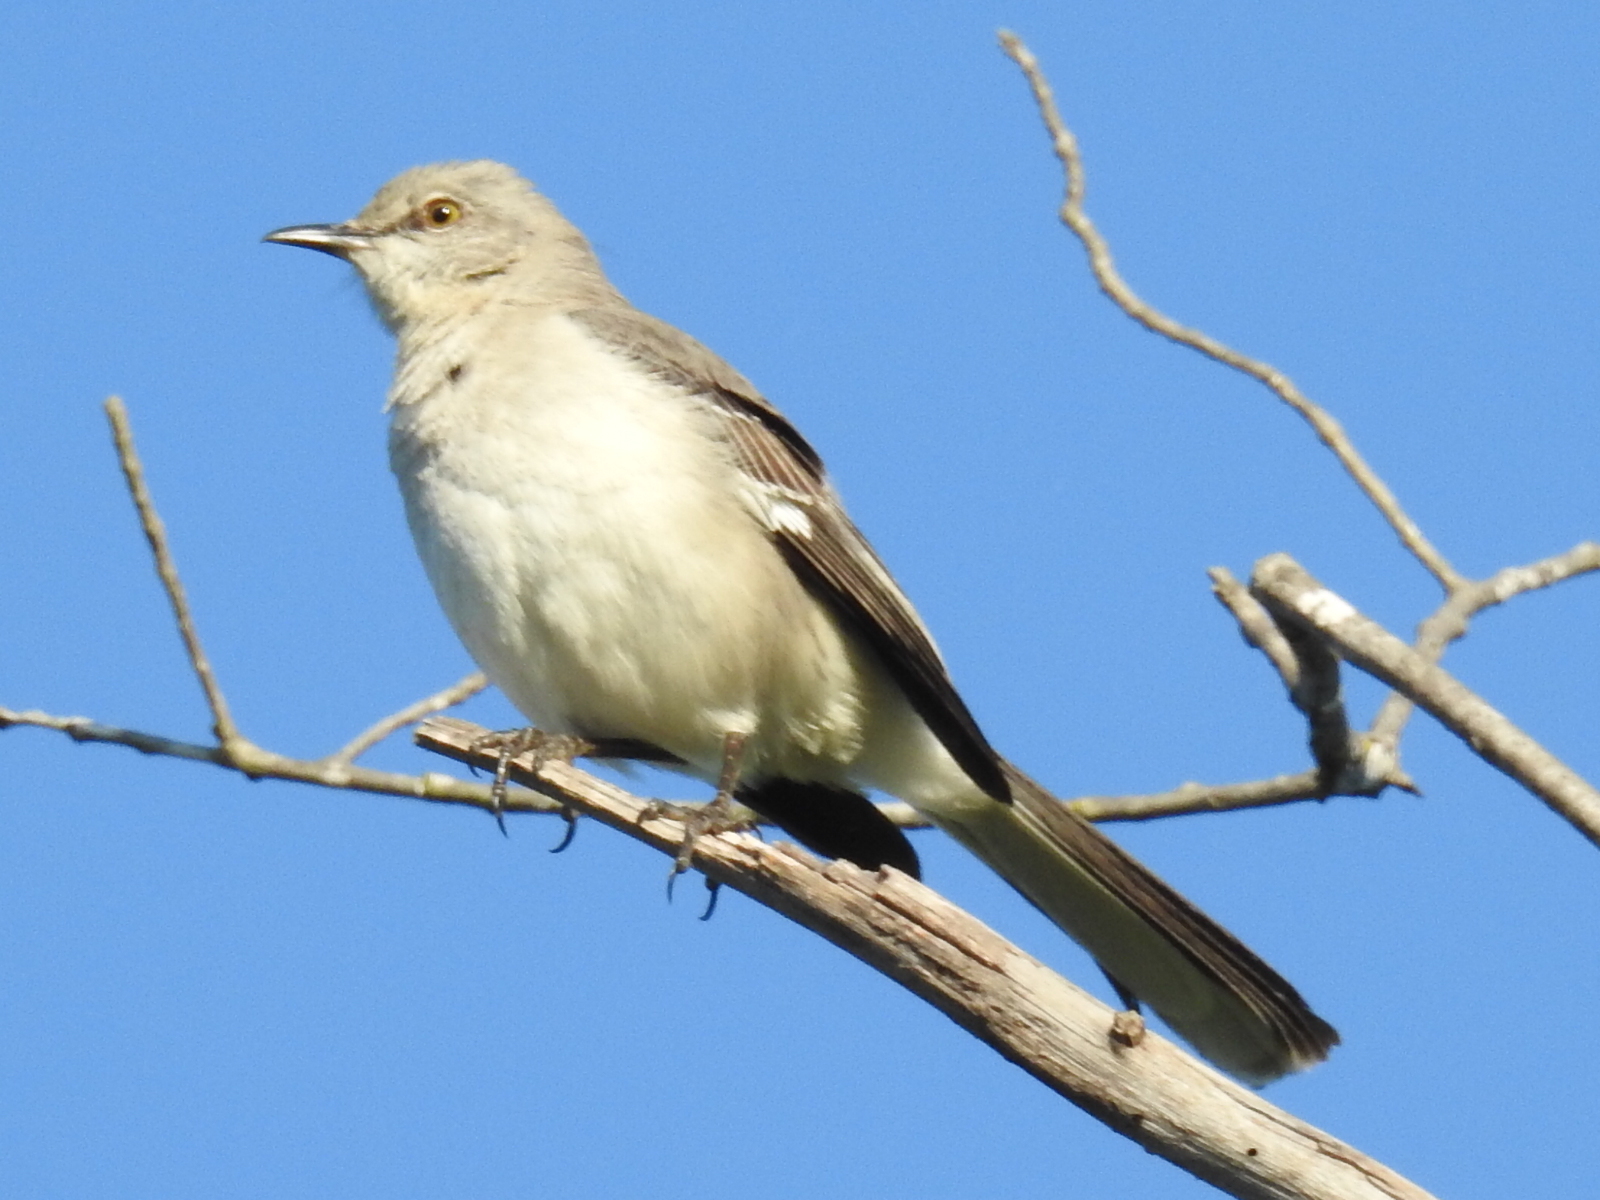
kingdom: Animalia
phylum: Chordata
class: Aves
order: Passeriformes
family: Mimidae
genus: Mimus
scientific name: Mimus polyglottos
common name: Northern mockingbird
